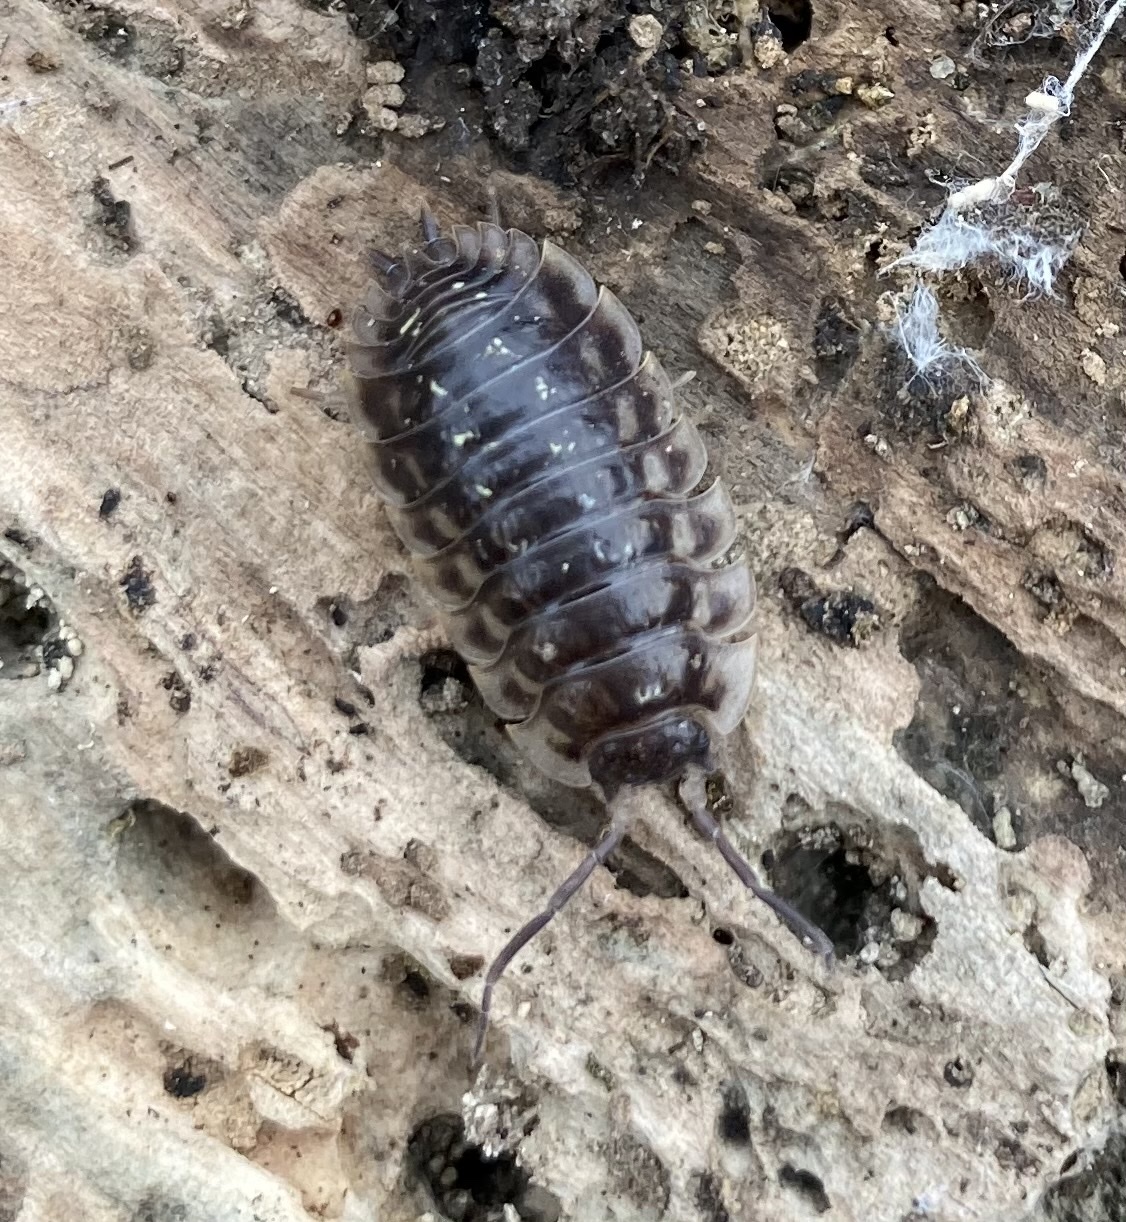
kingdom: Animalia
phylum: Arthropoda
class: Malacostraca
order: Isopoda
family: Oniscidae
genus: Oniscus
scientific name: Oniscus asellus
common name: Common shiny woodlouse
